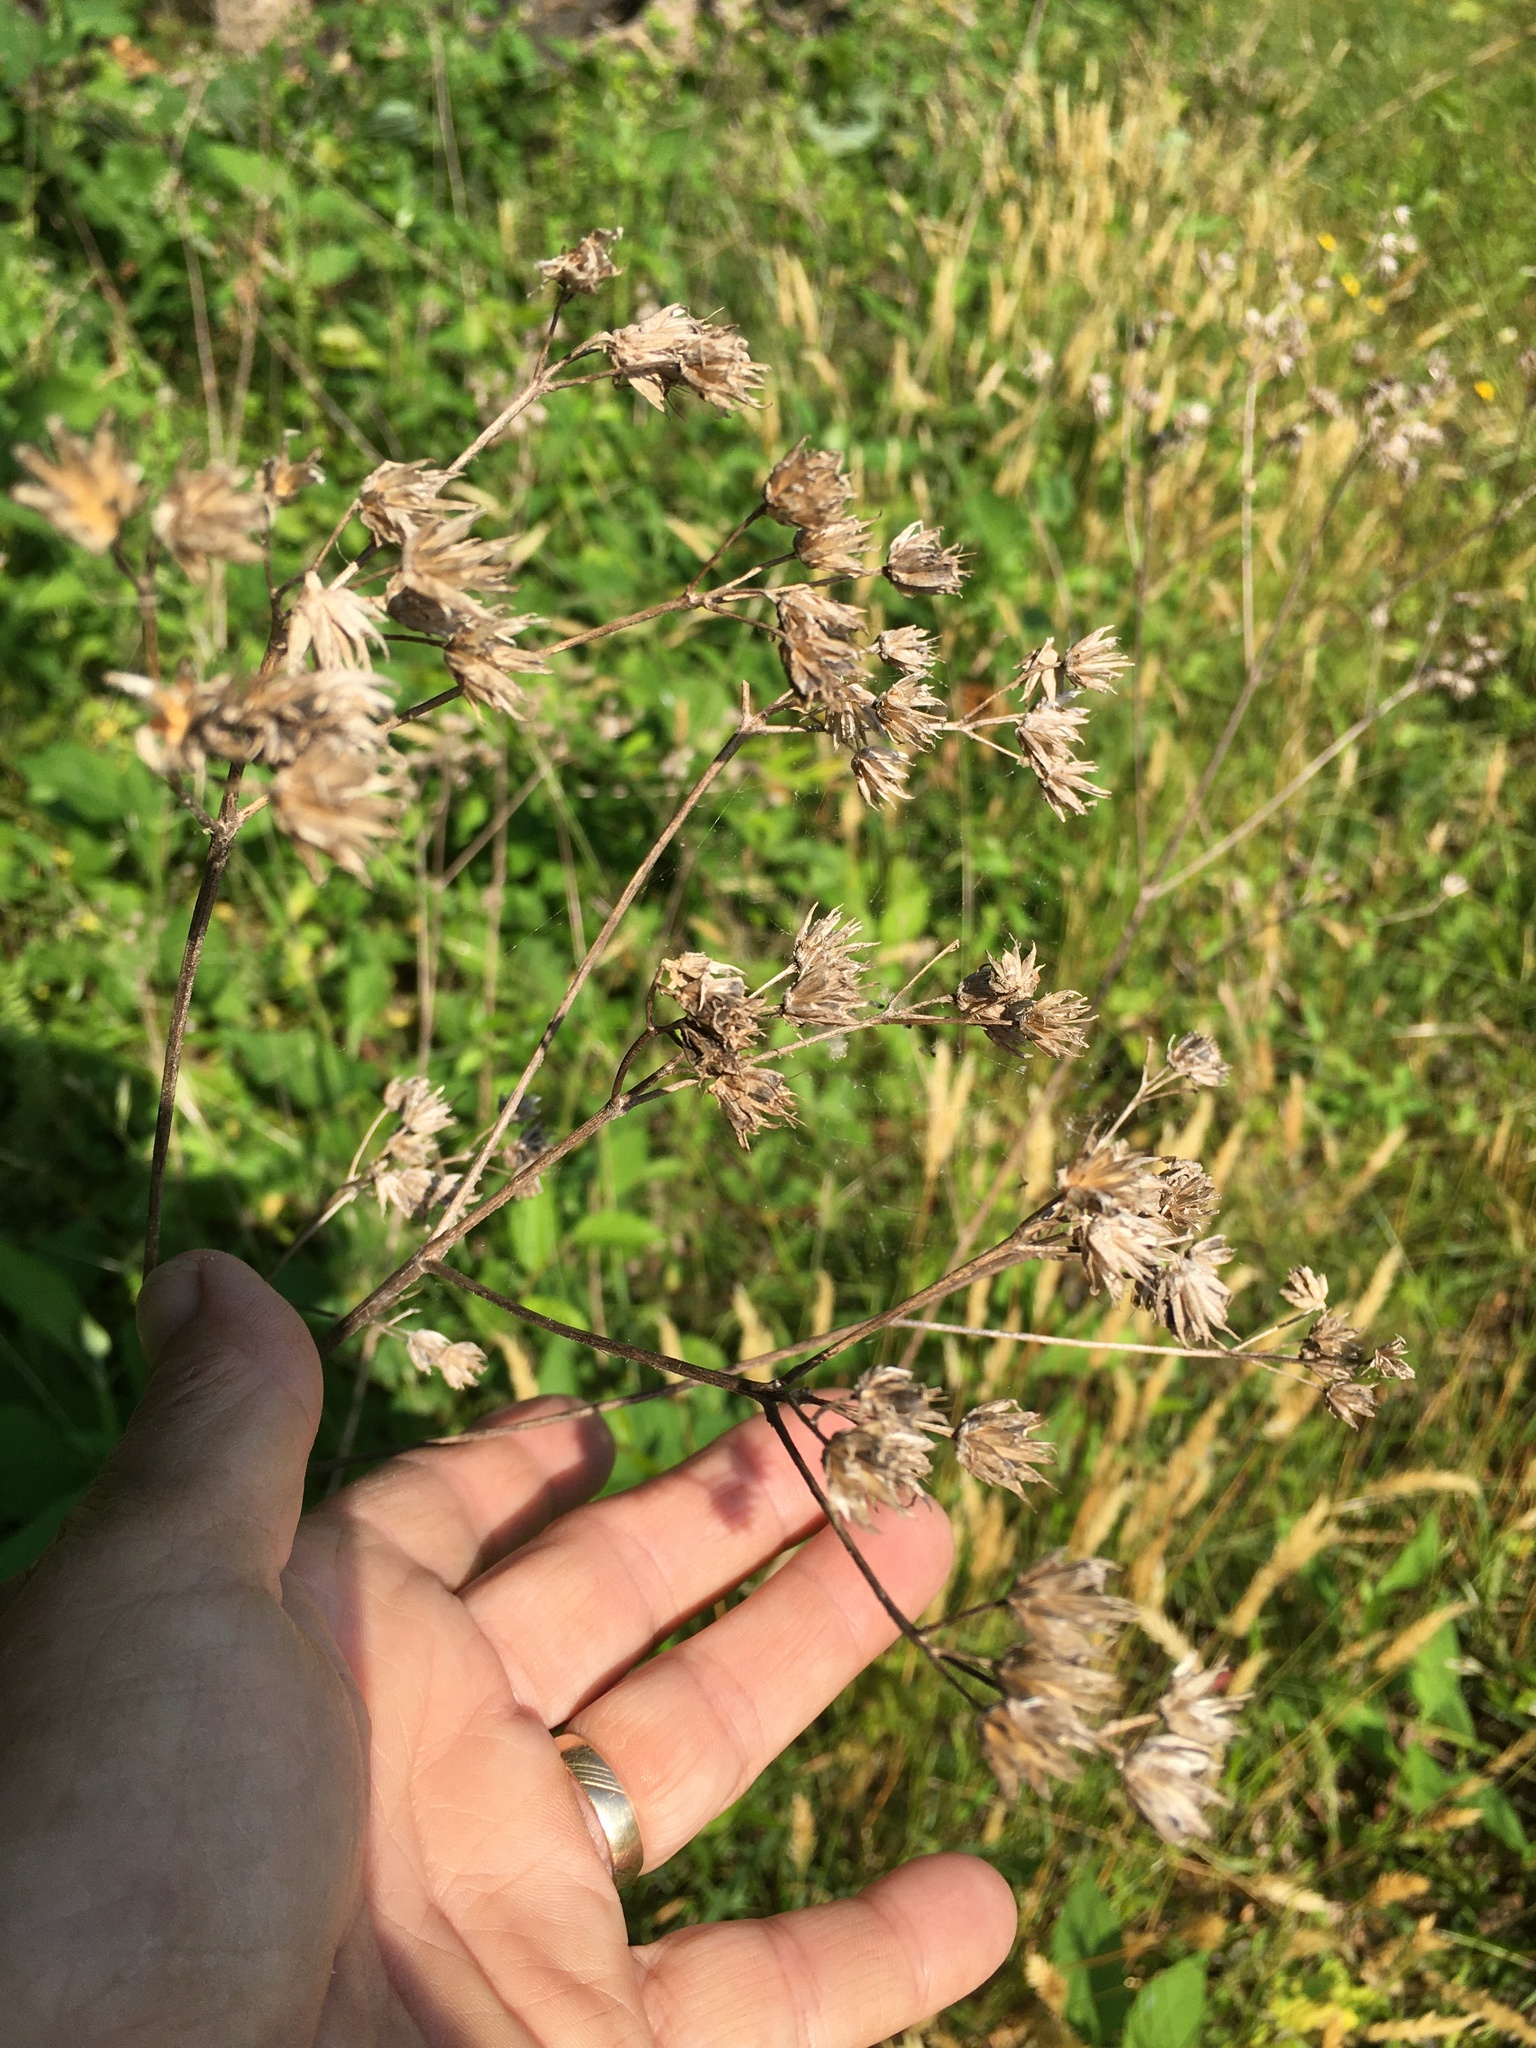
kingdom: Plantae
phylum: Tracheophyta
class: Magnoliopsida
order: Asterales
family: Asteraceae
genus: Verbesina
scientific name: Verbesina occidentalis
